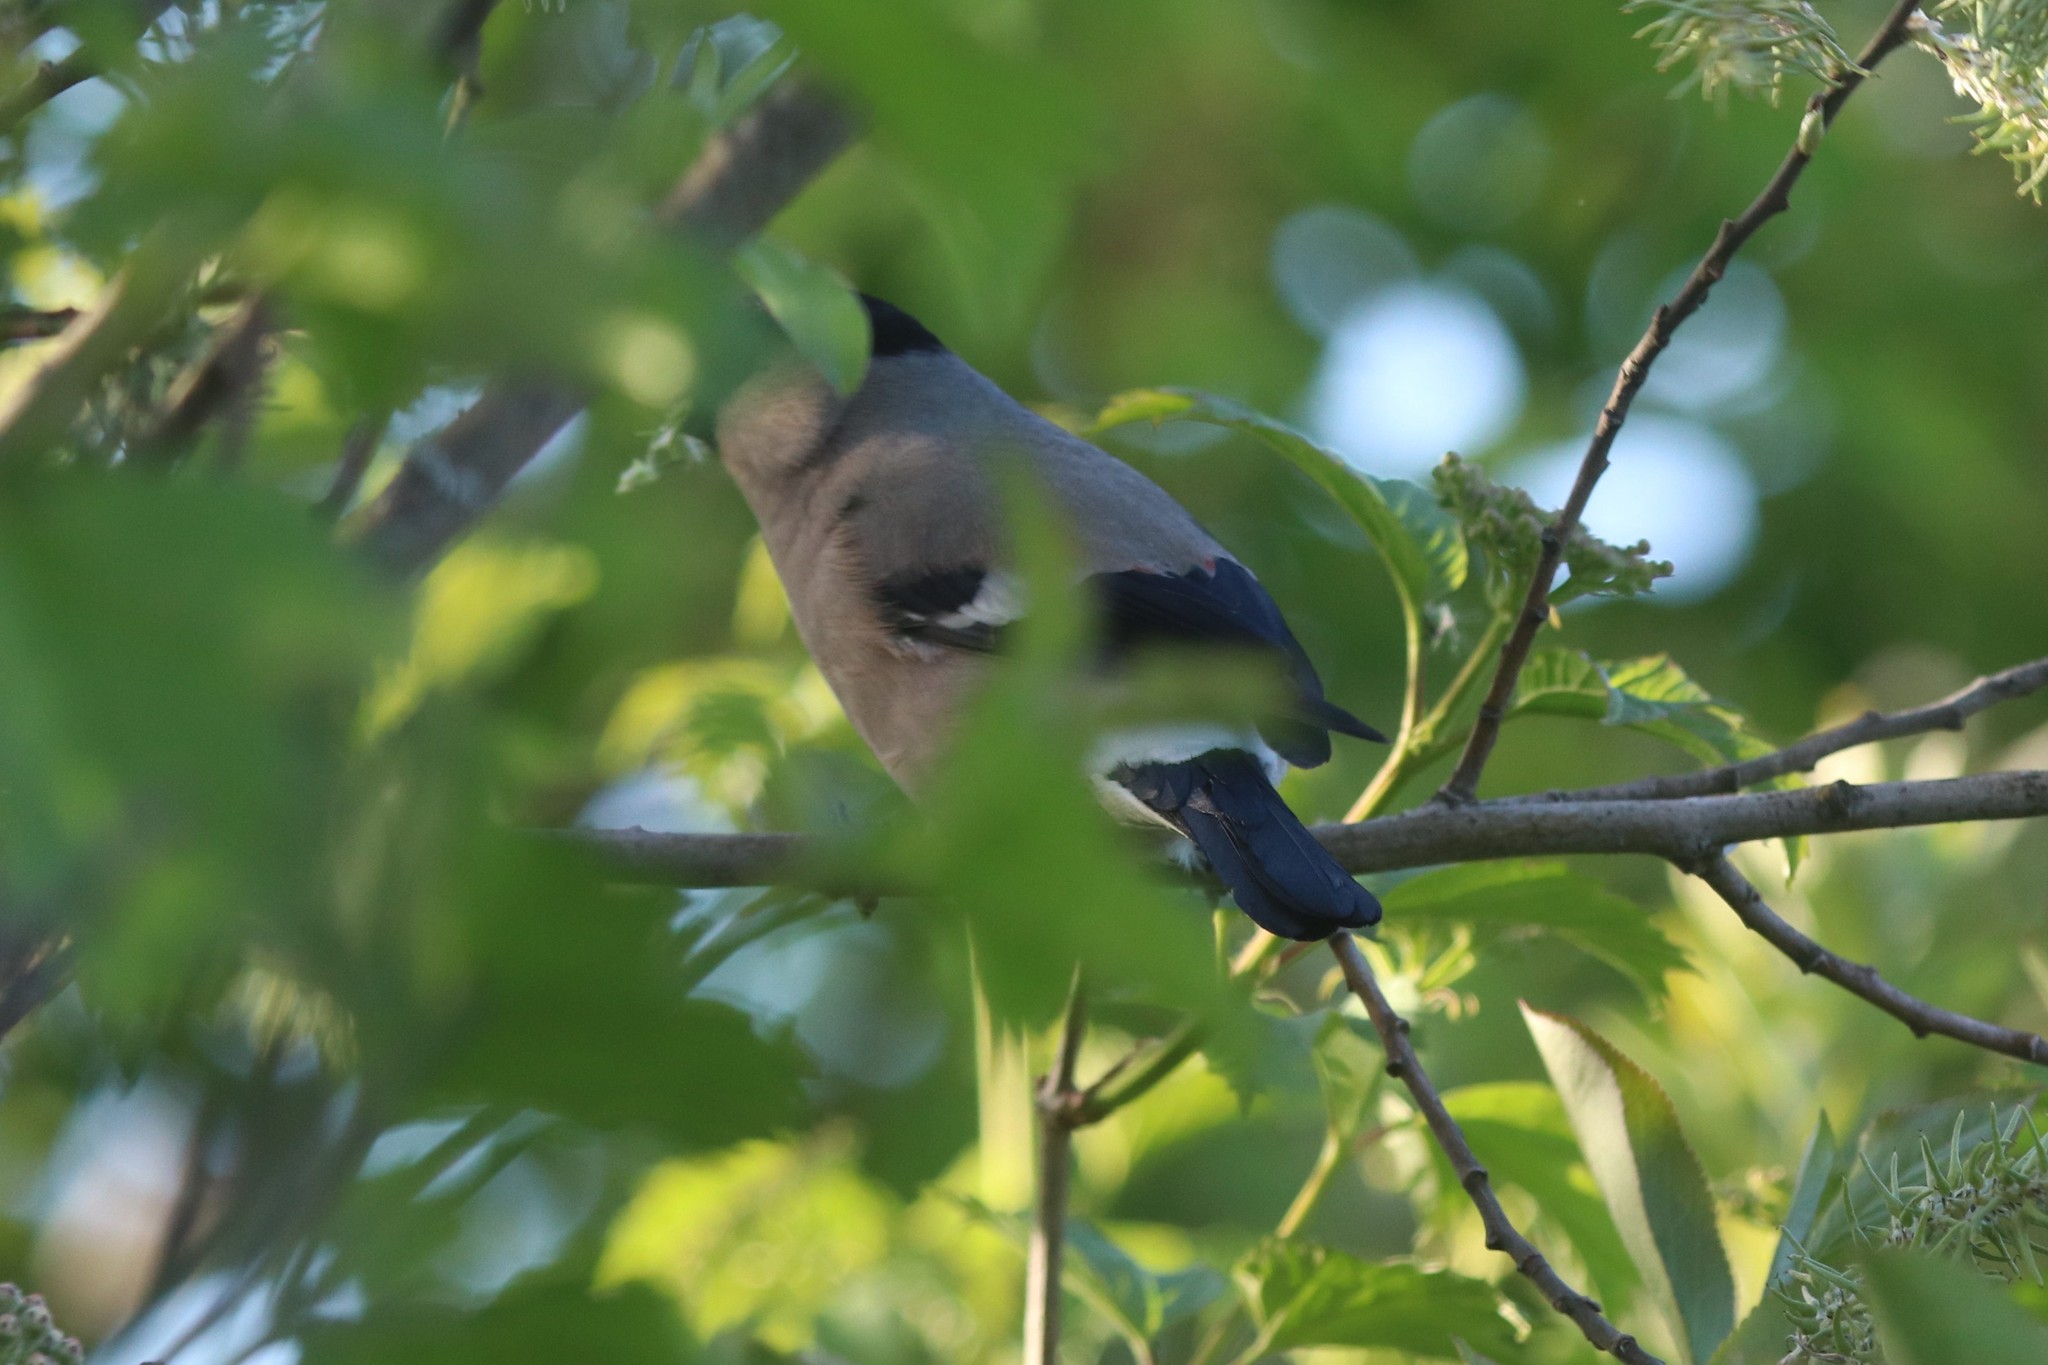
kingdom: Animalia
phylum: Chordata
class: Aves
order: Passeriformes
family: Fringillidae
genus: Pyrrhula
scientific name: Pyrrhula pyrrhula
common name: Eurasian bullfinch
